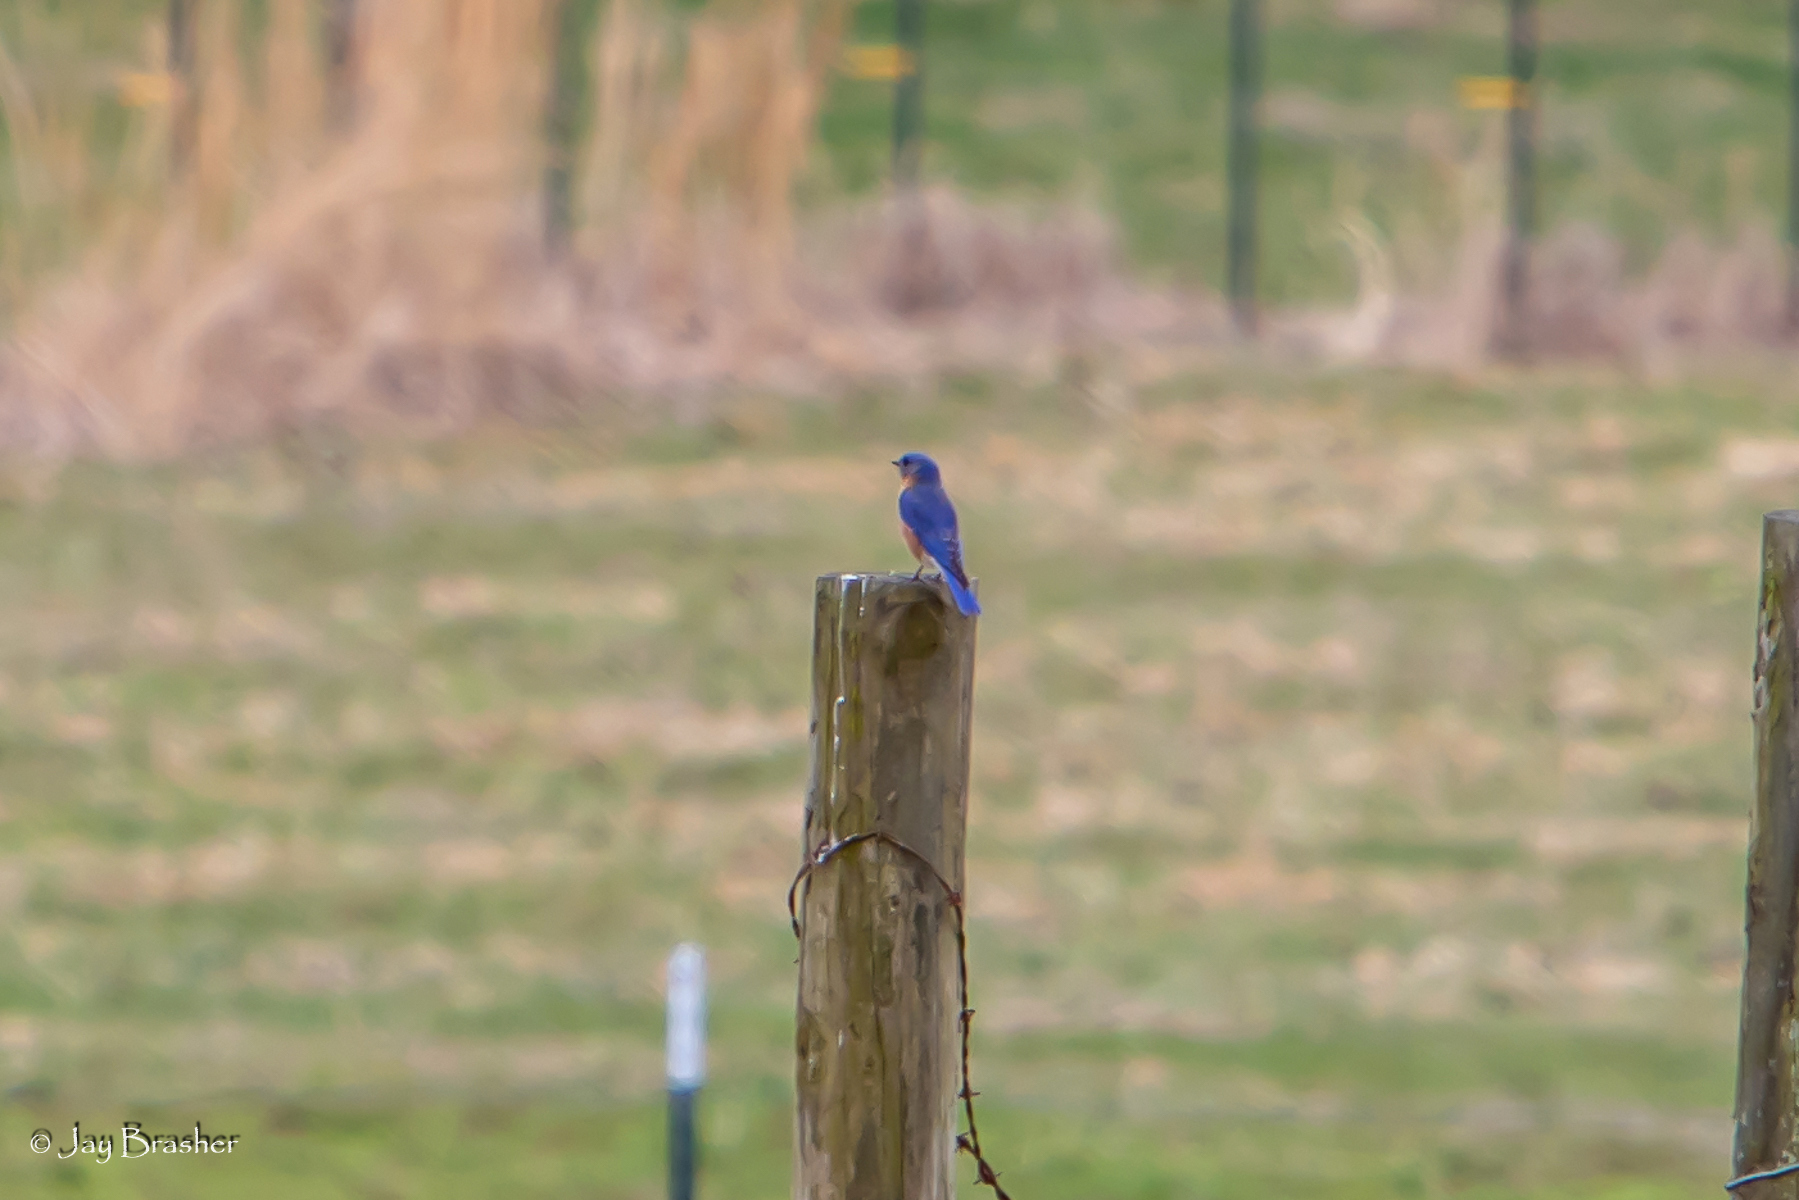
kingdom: Animalia
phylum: Chordata
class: Aves
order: Passeriformes
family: Turdidae
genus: Sialia
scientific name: Sialia sialis
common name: Eastern bluebird
